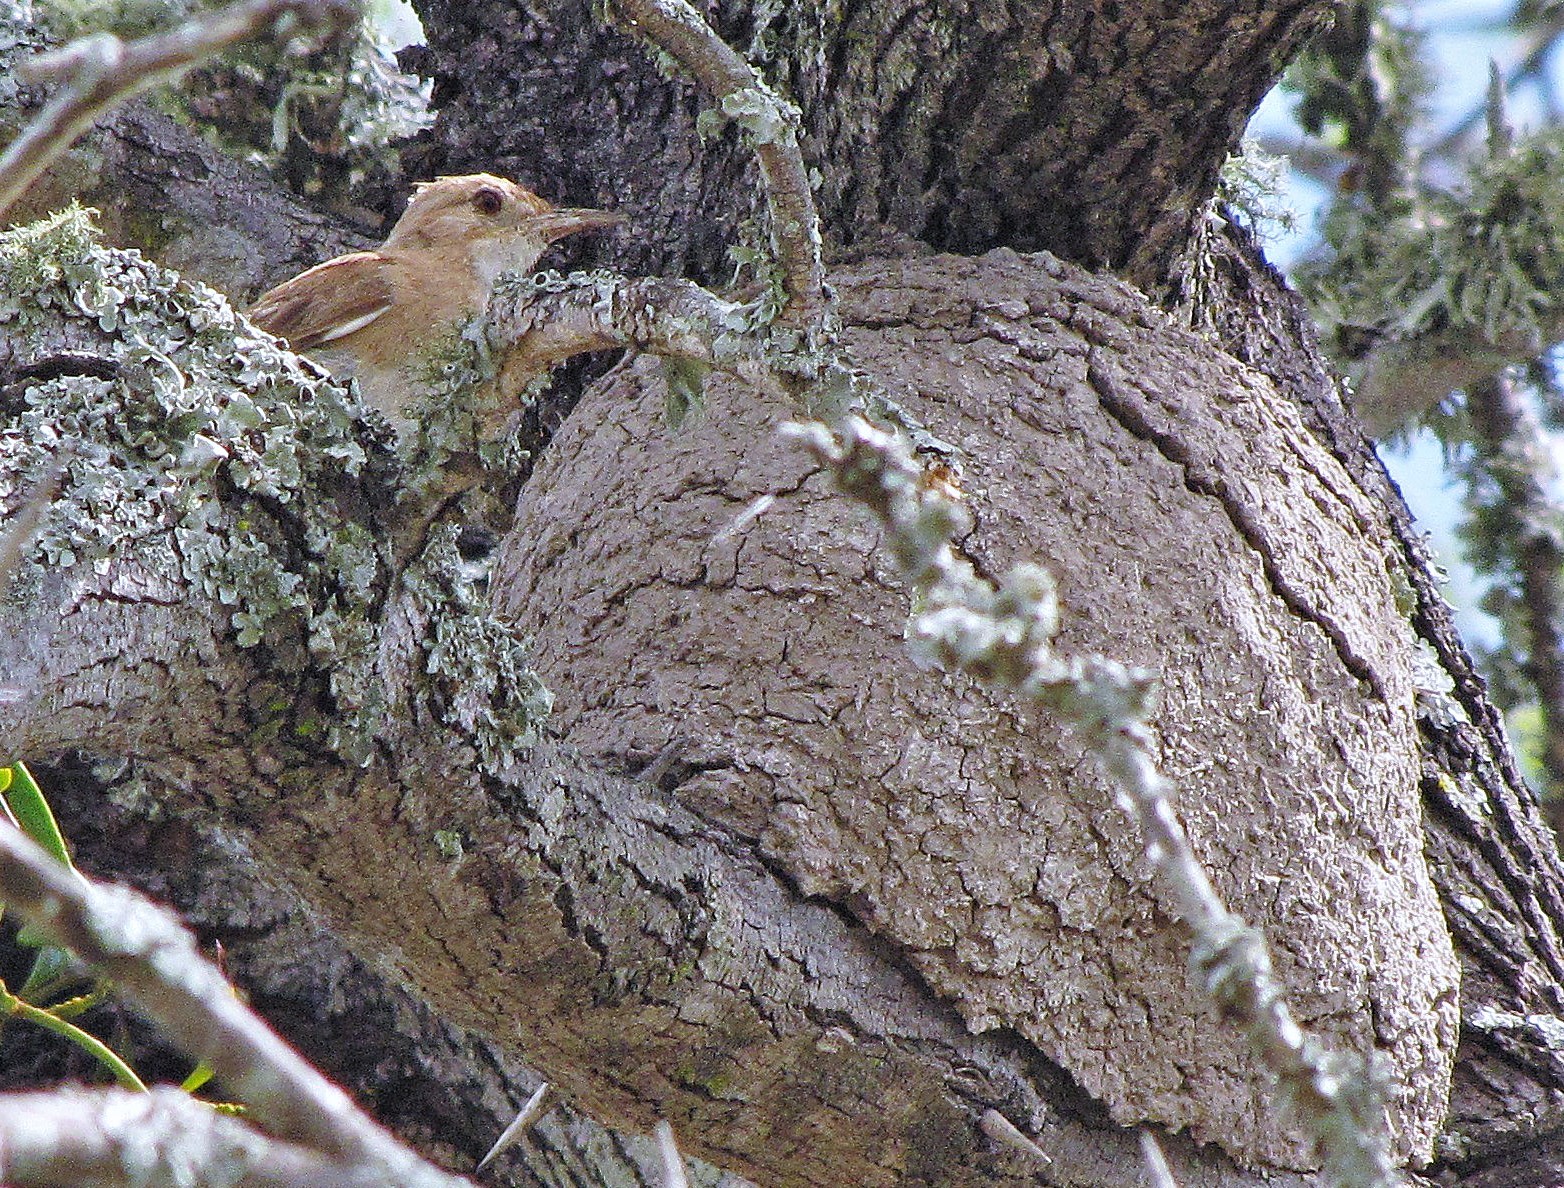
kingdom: Animalia
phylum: Chordata
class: Aves
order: Passeriformes
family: Furnariidae
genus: Furnarius
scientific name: Furnarius rufus
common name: Rufous hornero
